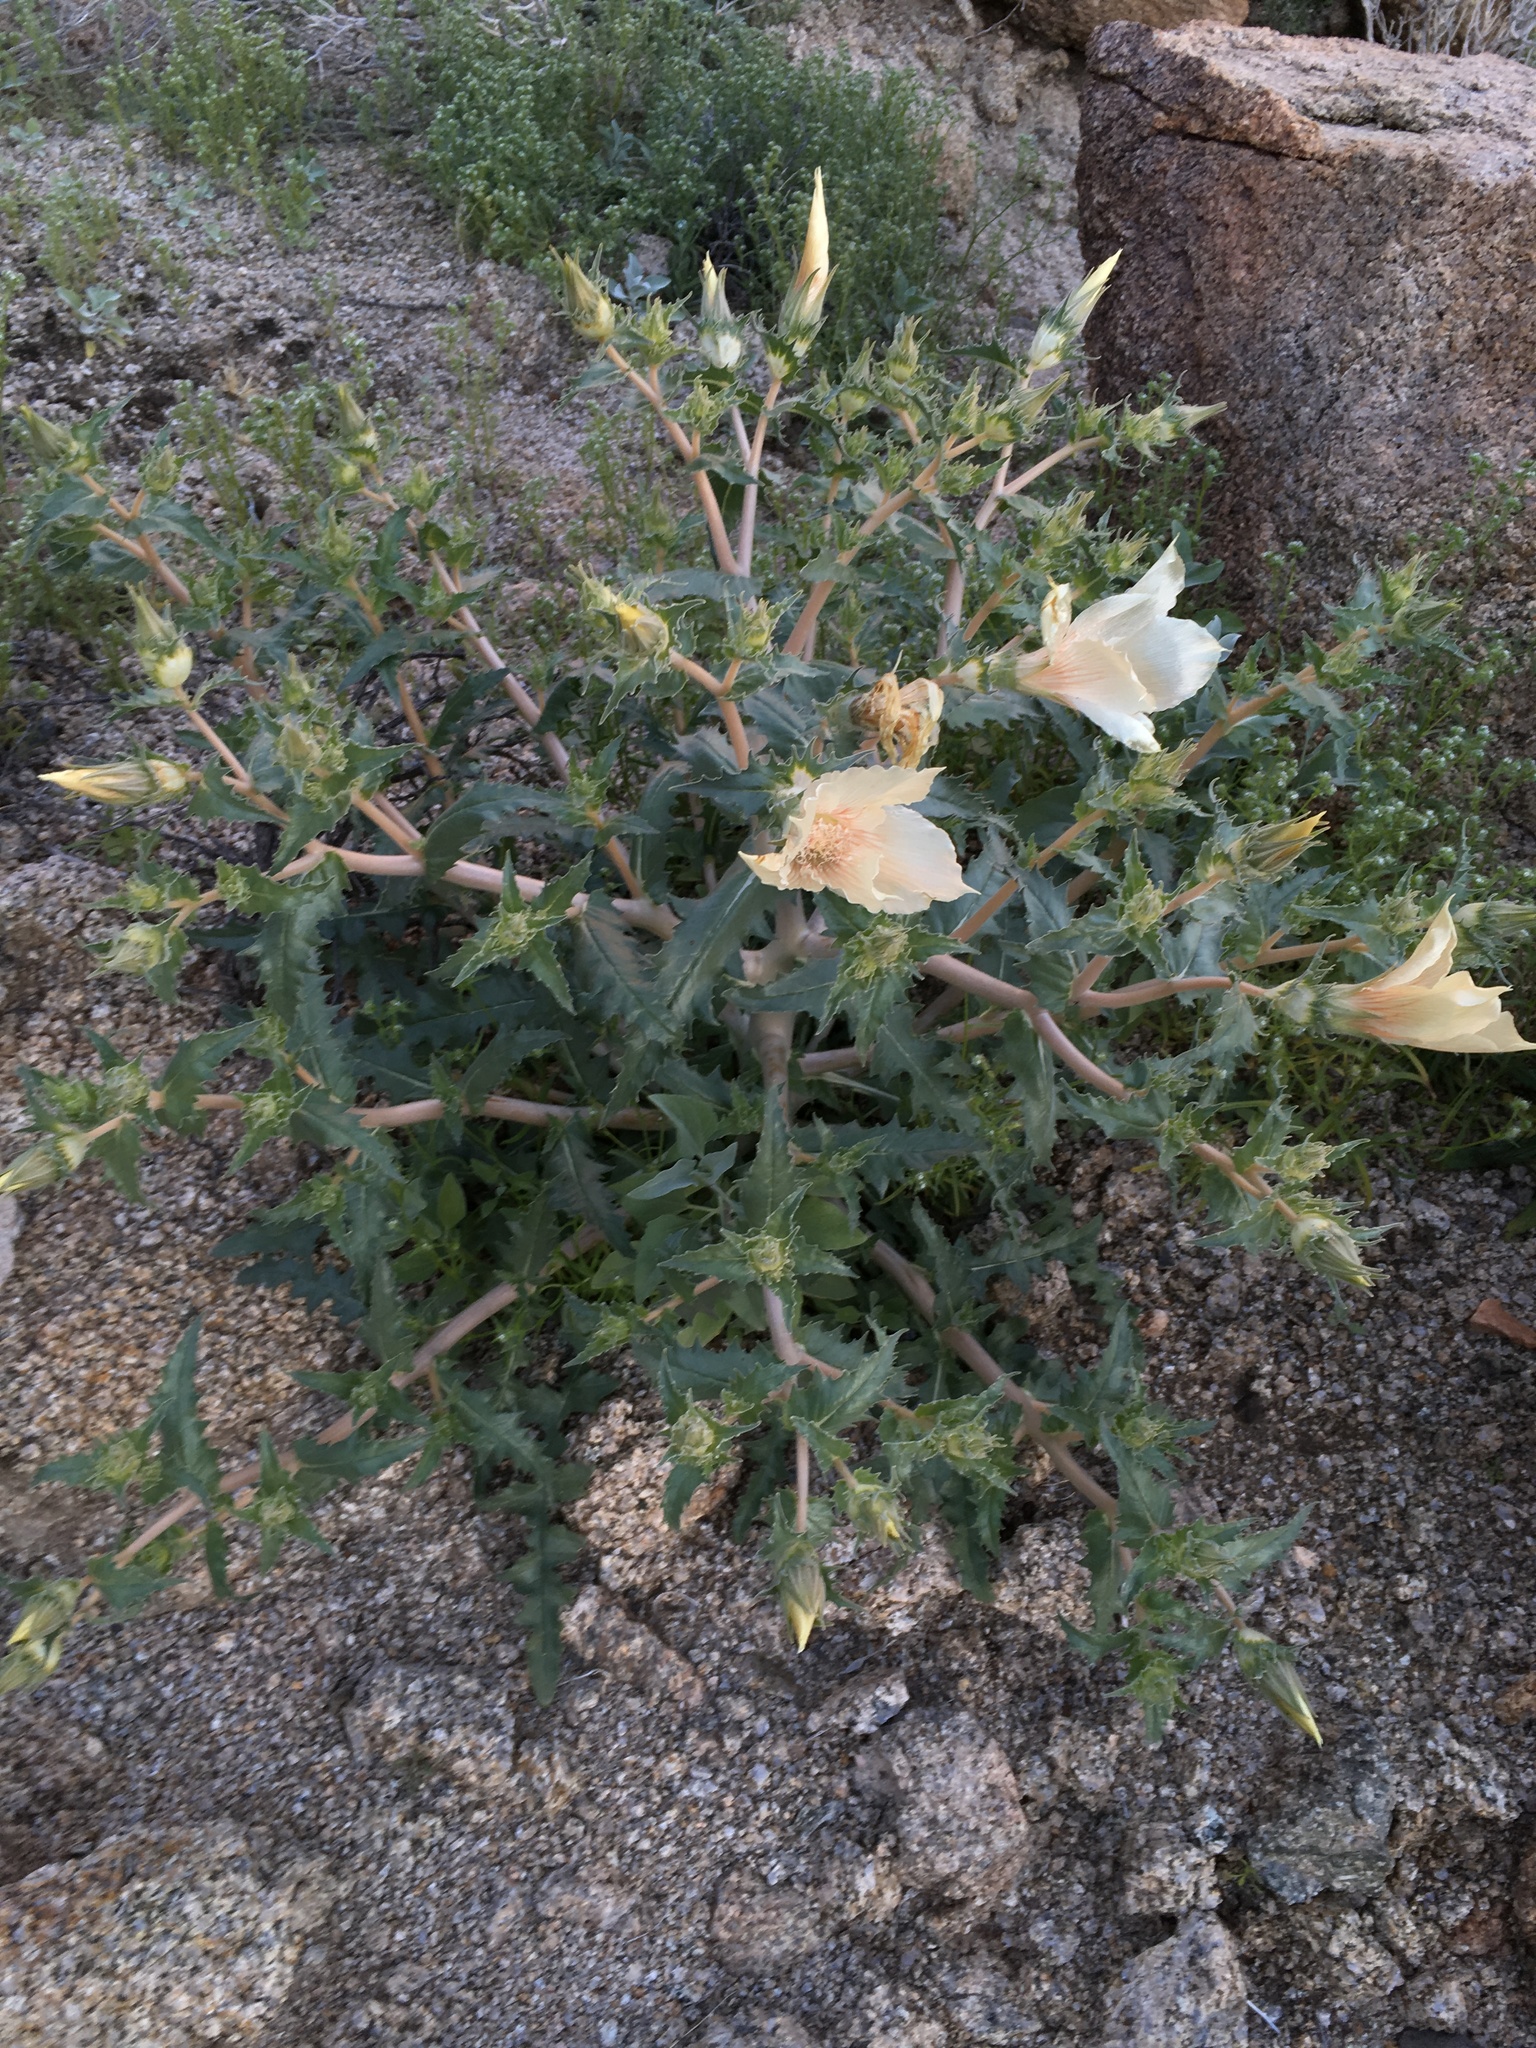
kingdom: Plantae
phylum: Tracheophyta
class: Magnoliopsida
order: Cornales
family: Loasaceae
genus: Mentzelia
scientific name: Mentzelia involucrata
